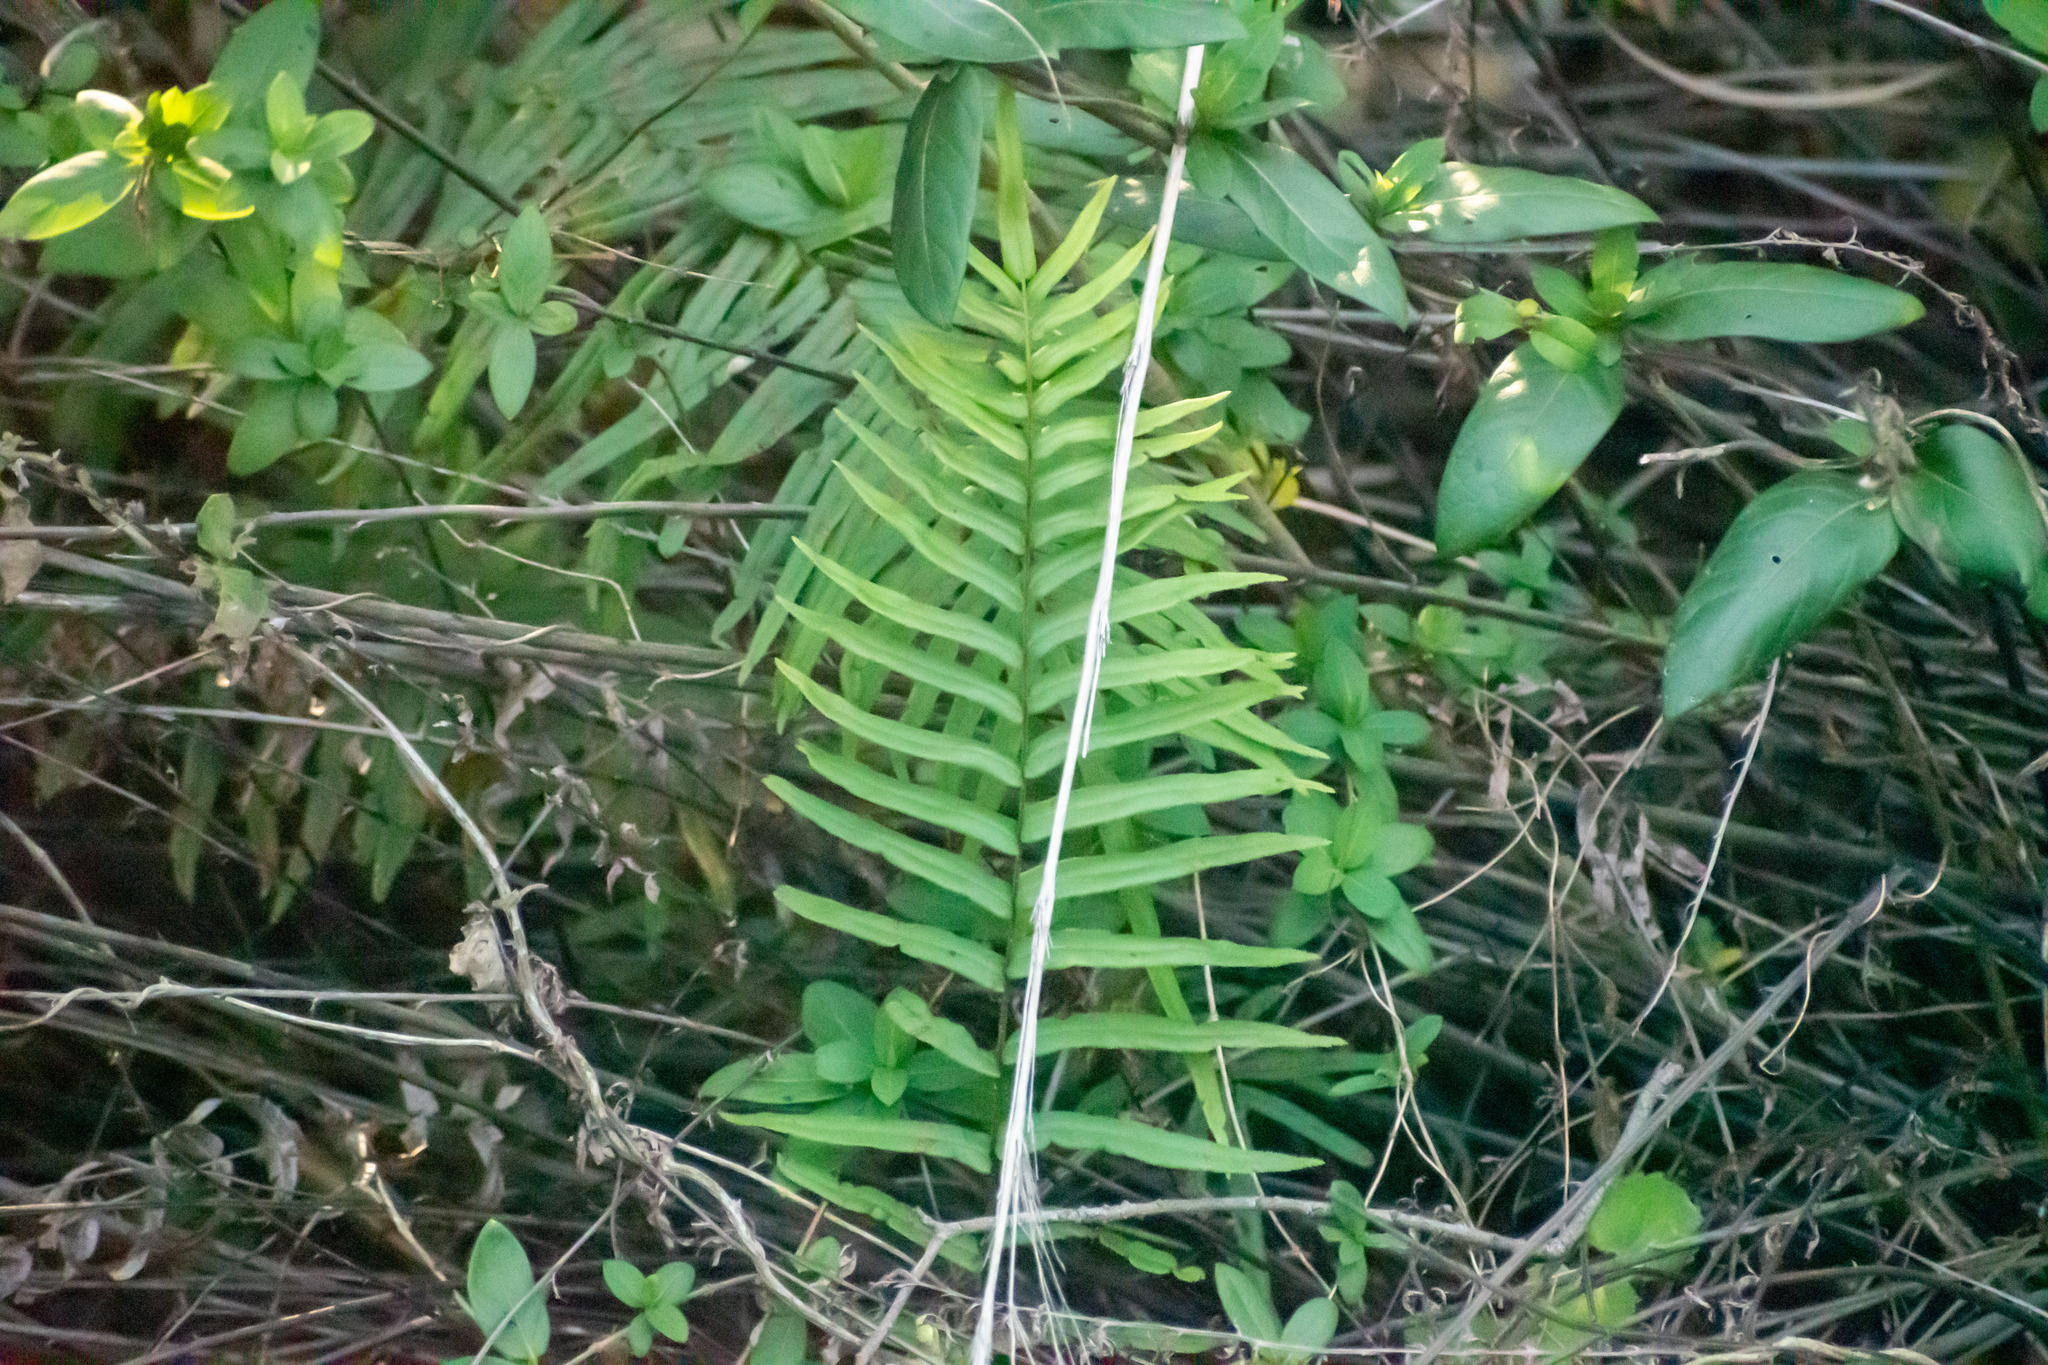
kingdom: Plantae
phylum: Tracheophyta
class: Polypodiopsida
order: Polypodiales
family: Pteridaceae
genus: Pteris
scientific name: Pteris vittata
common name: Ladder brake
